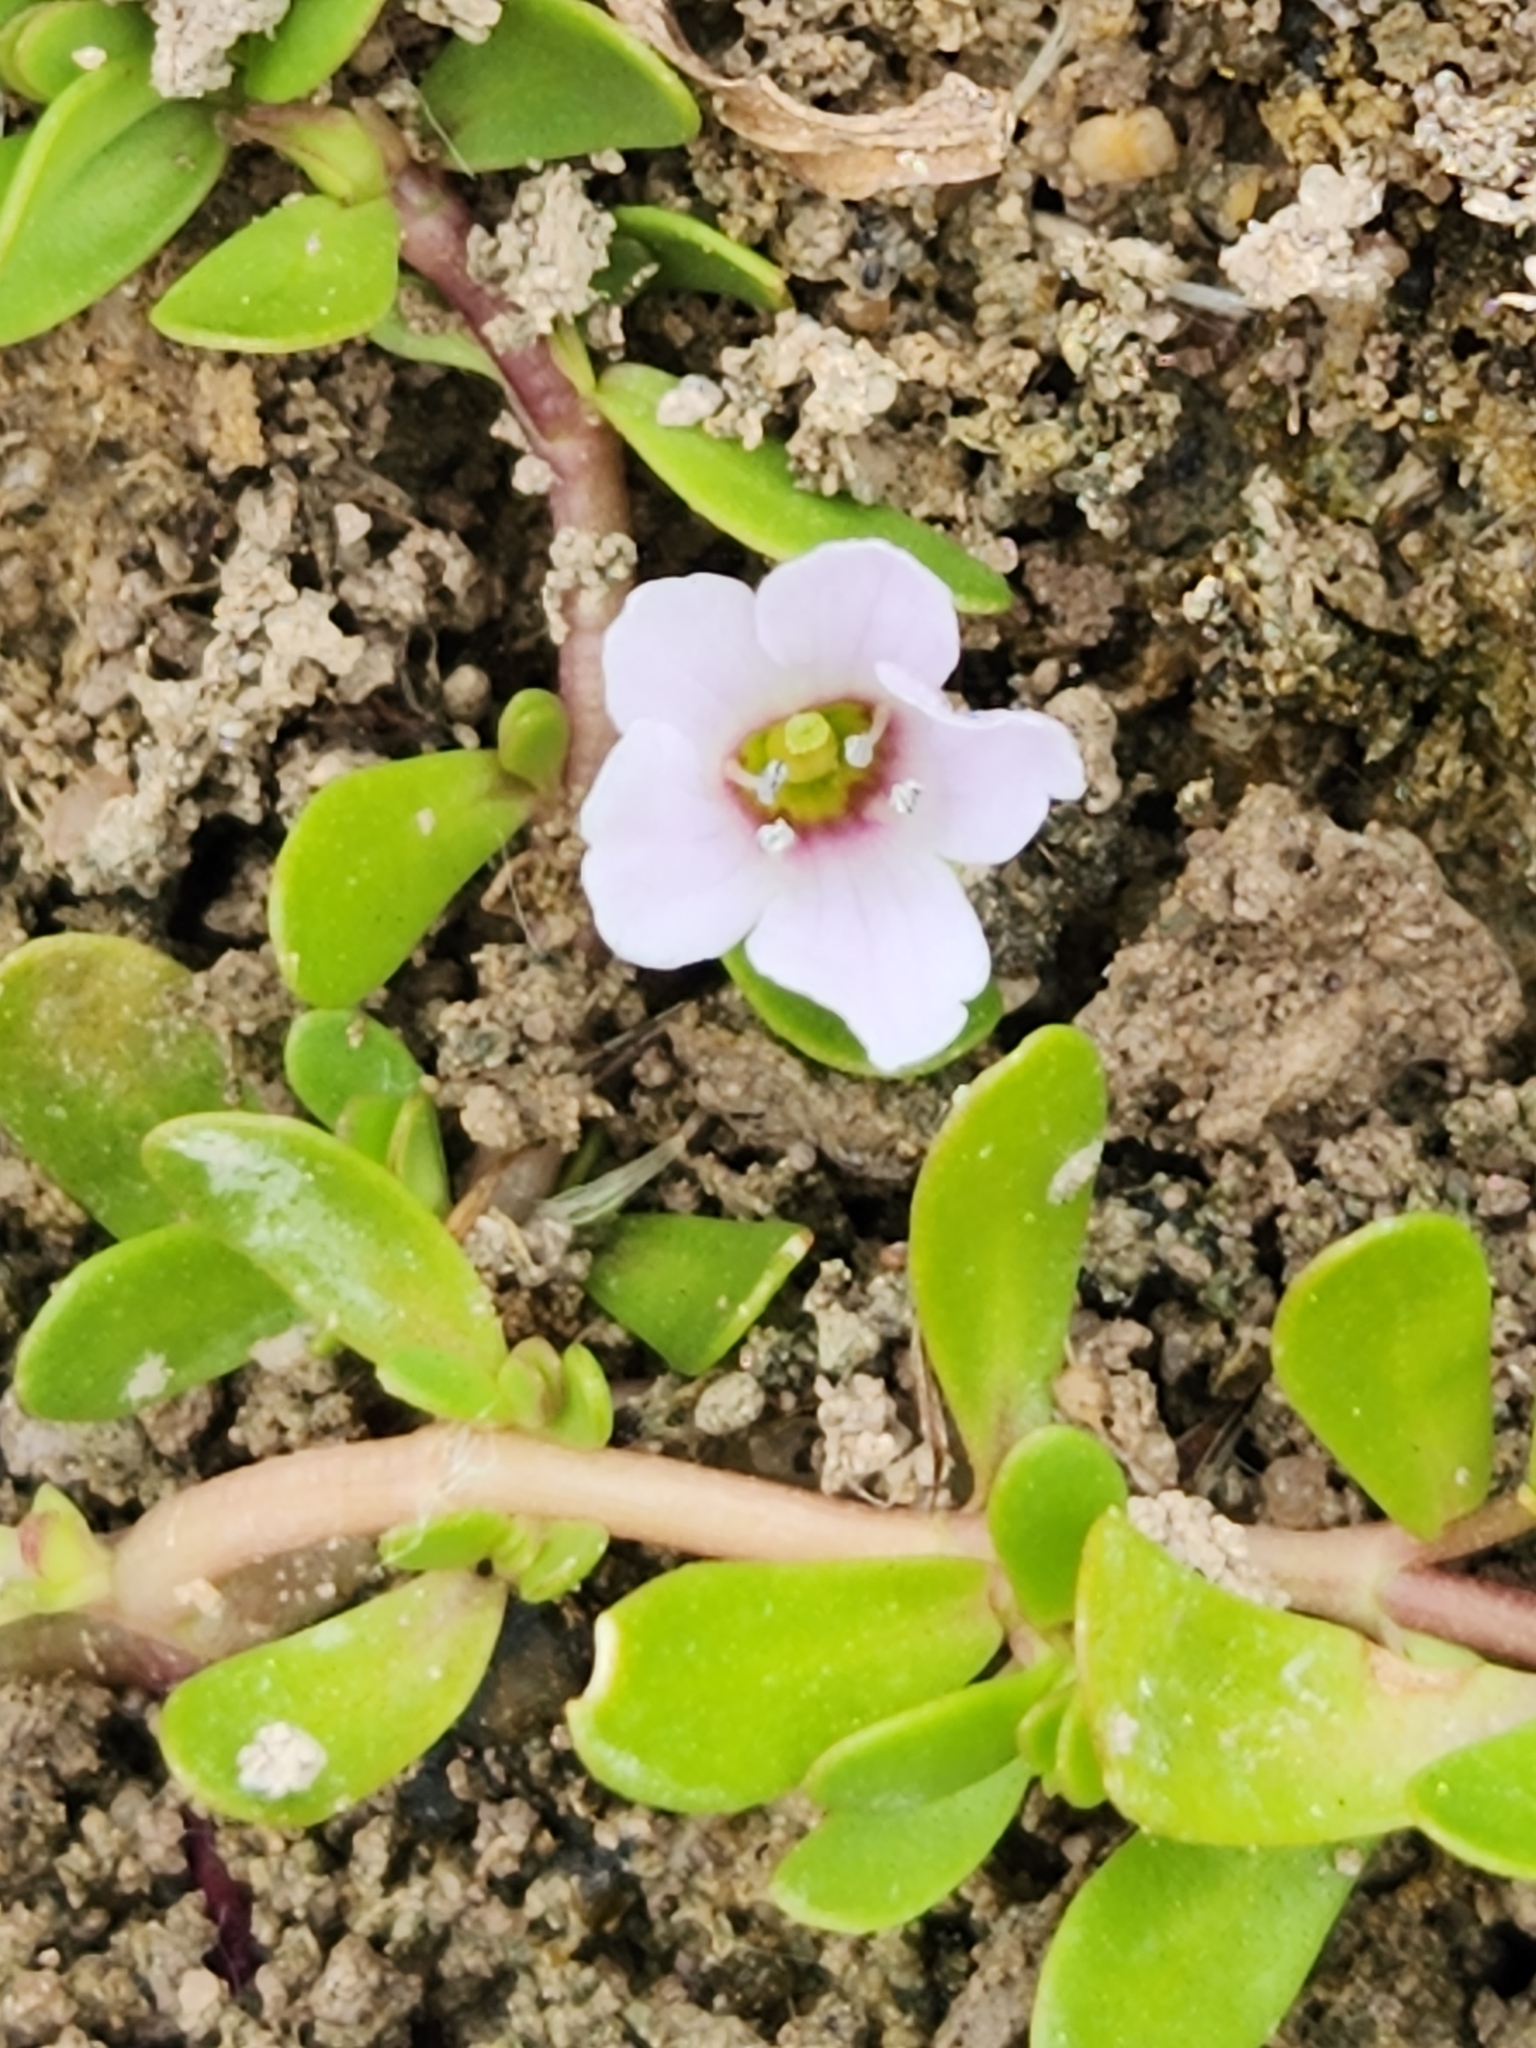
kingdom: Plantae
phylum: Tracheophyta
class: Magnoliopsida
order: Lamiales
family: Plantaginaceae
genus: Bacopa
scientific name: Bacopa monnieri
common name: Indian-pennywort
